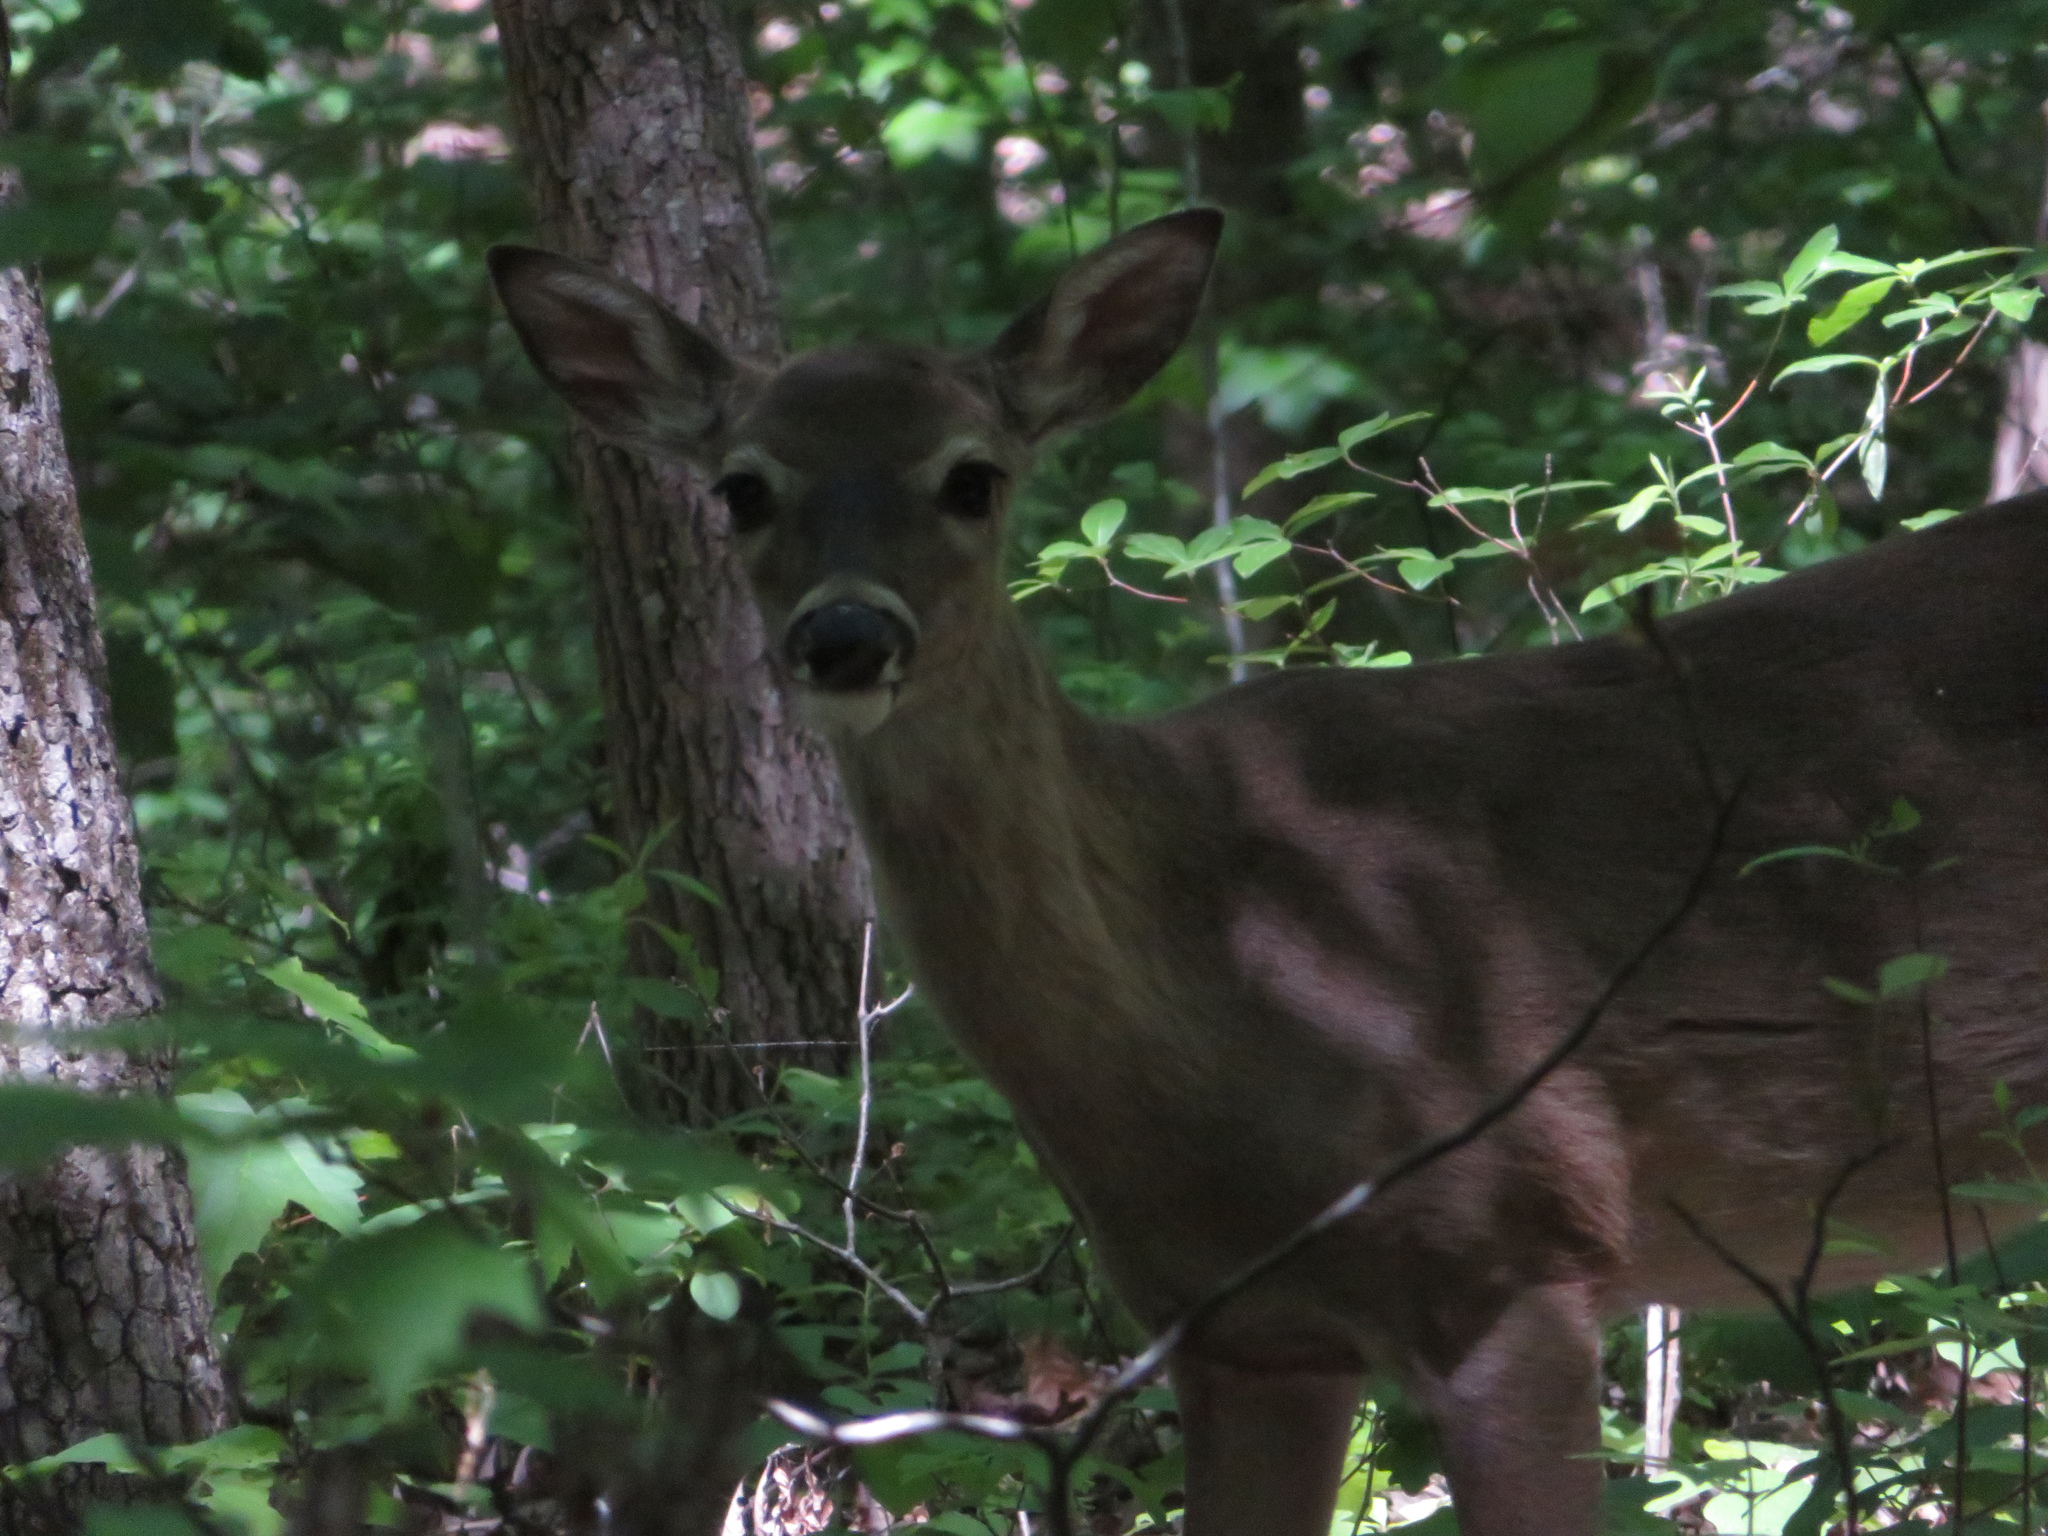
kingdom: Animalia
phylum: Chordata
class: Mammalia
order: Artiodactyla
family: Cervidae
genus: Odocoileus
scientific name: Odocoileus virginianus
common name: White-tailed deer
